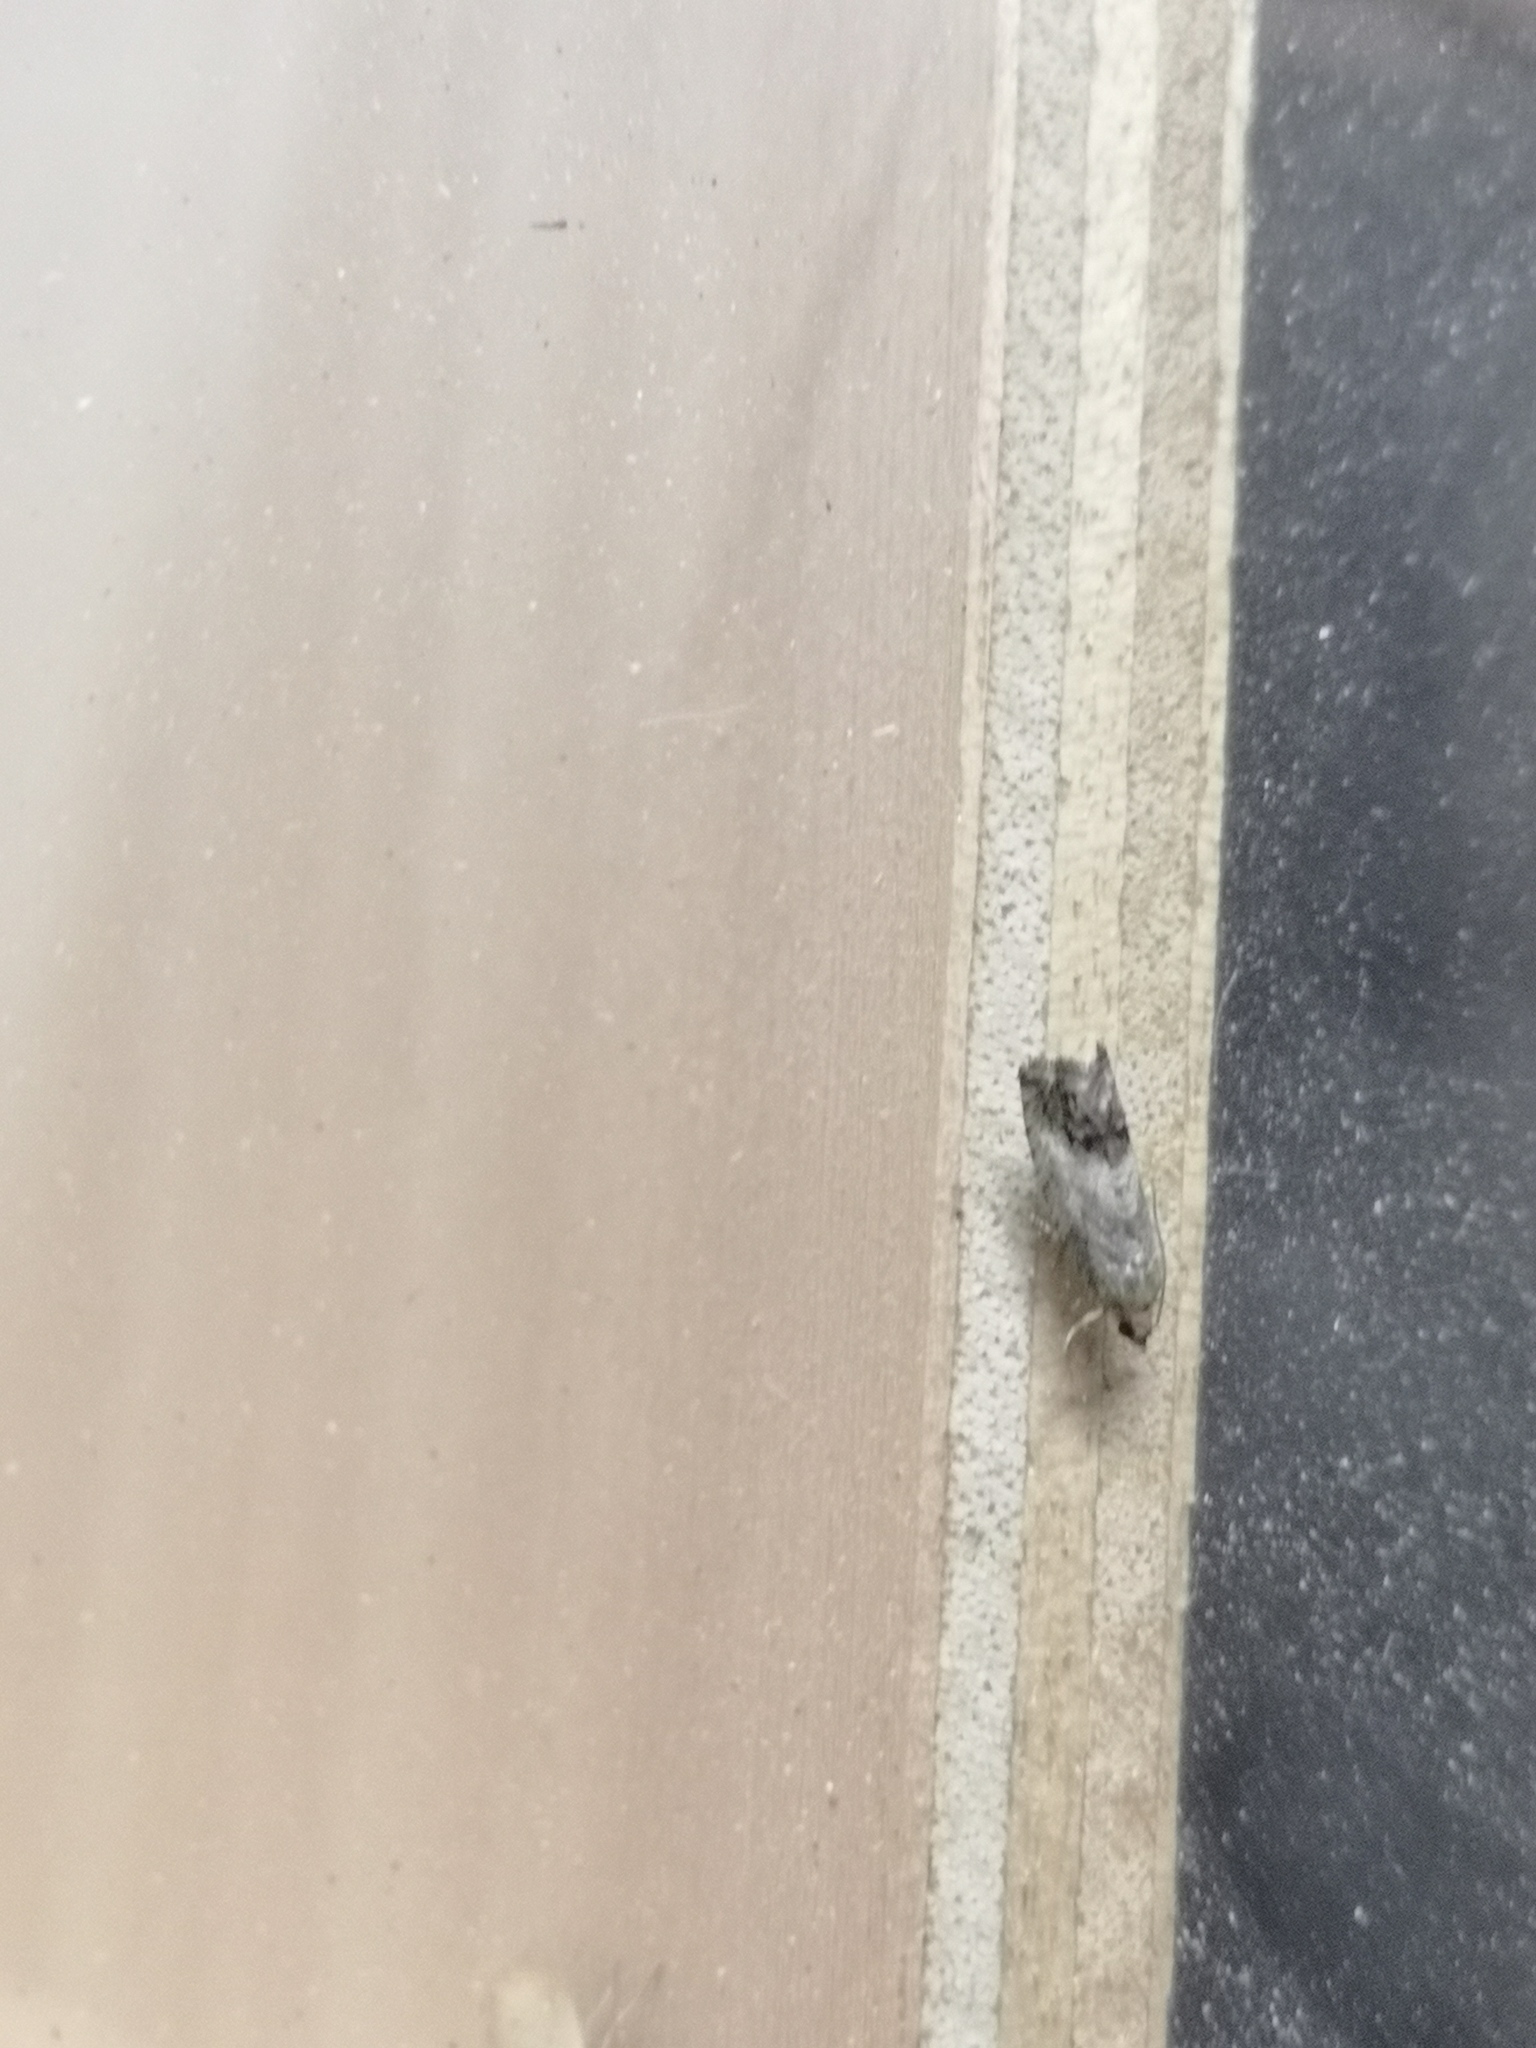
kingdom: Animalia
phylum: Arthropoda
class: Insecta
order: Lepidoptera
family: Tortricidae
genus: Cydia
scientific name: Cydia splendana
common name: De: kastanienwickler, eichenwickler es: oruga de la castaña fr: carpocapse des châtaignes it: cidia o tortrice tardiva delle castagne pt: bichado das castanhas gb: acorn moth, chestnut fruit tortrix
